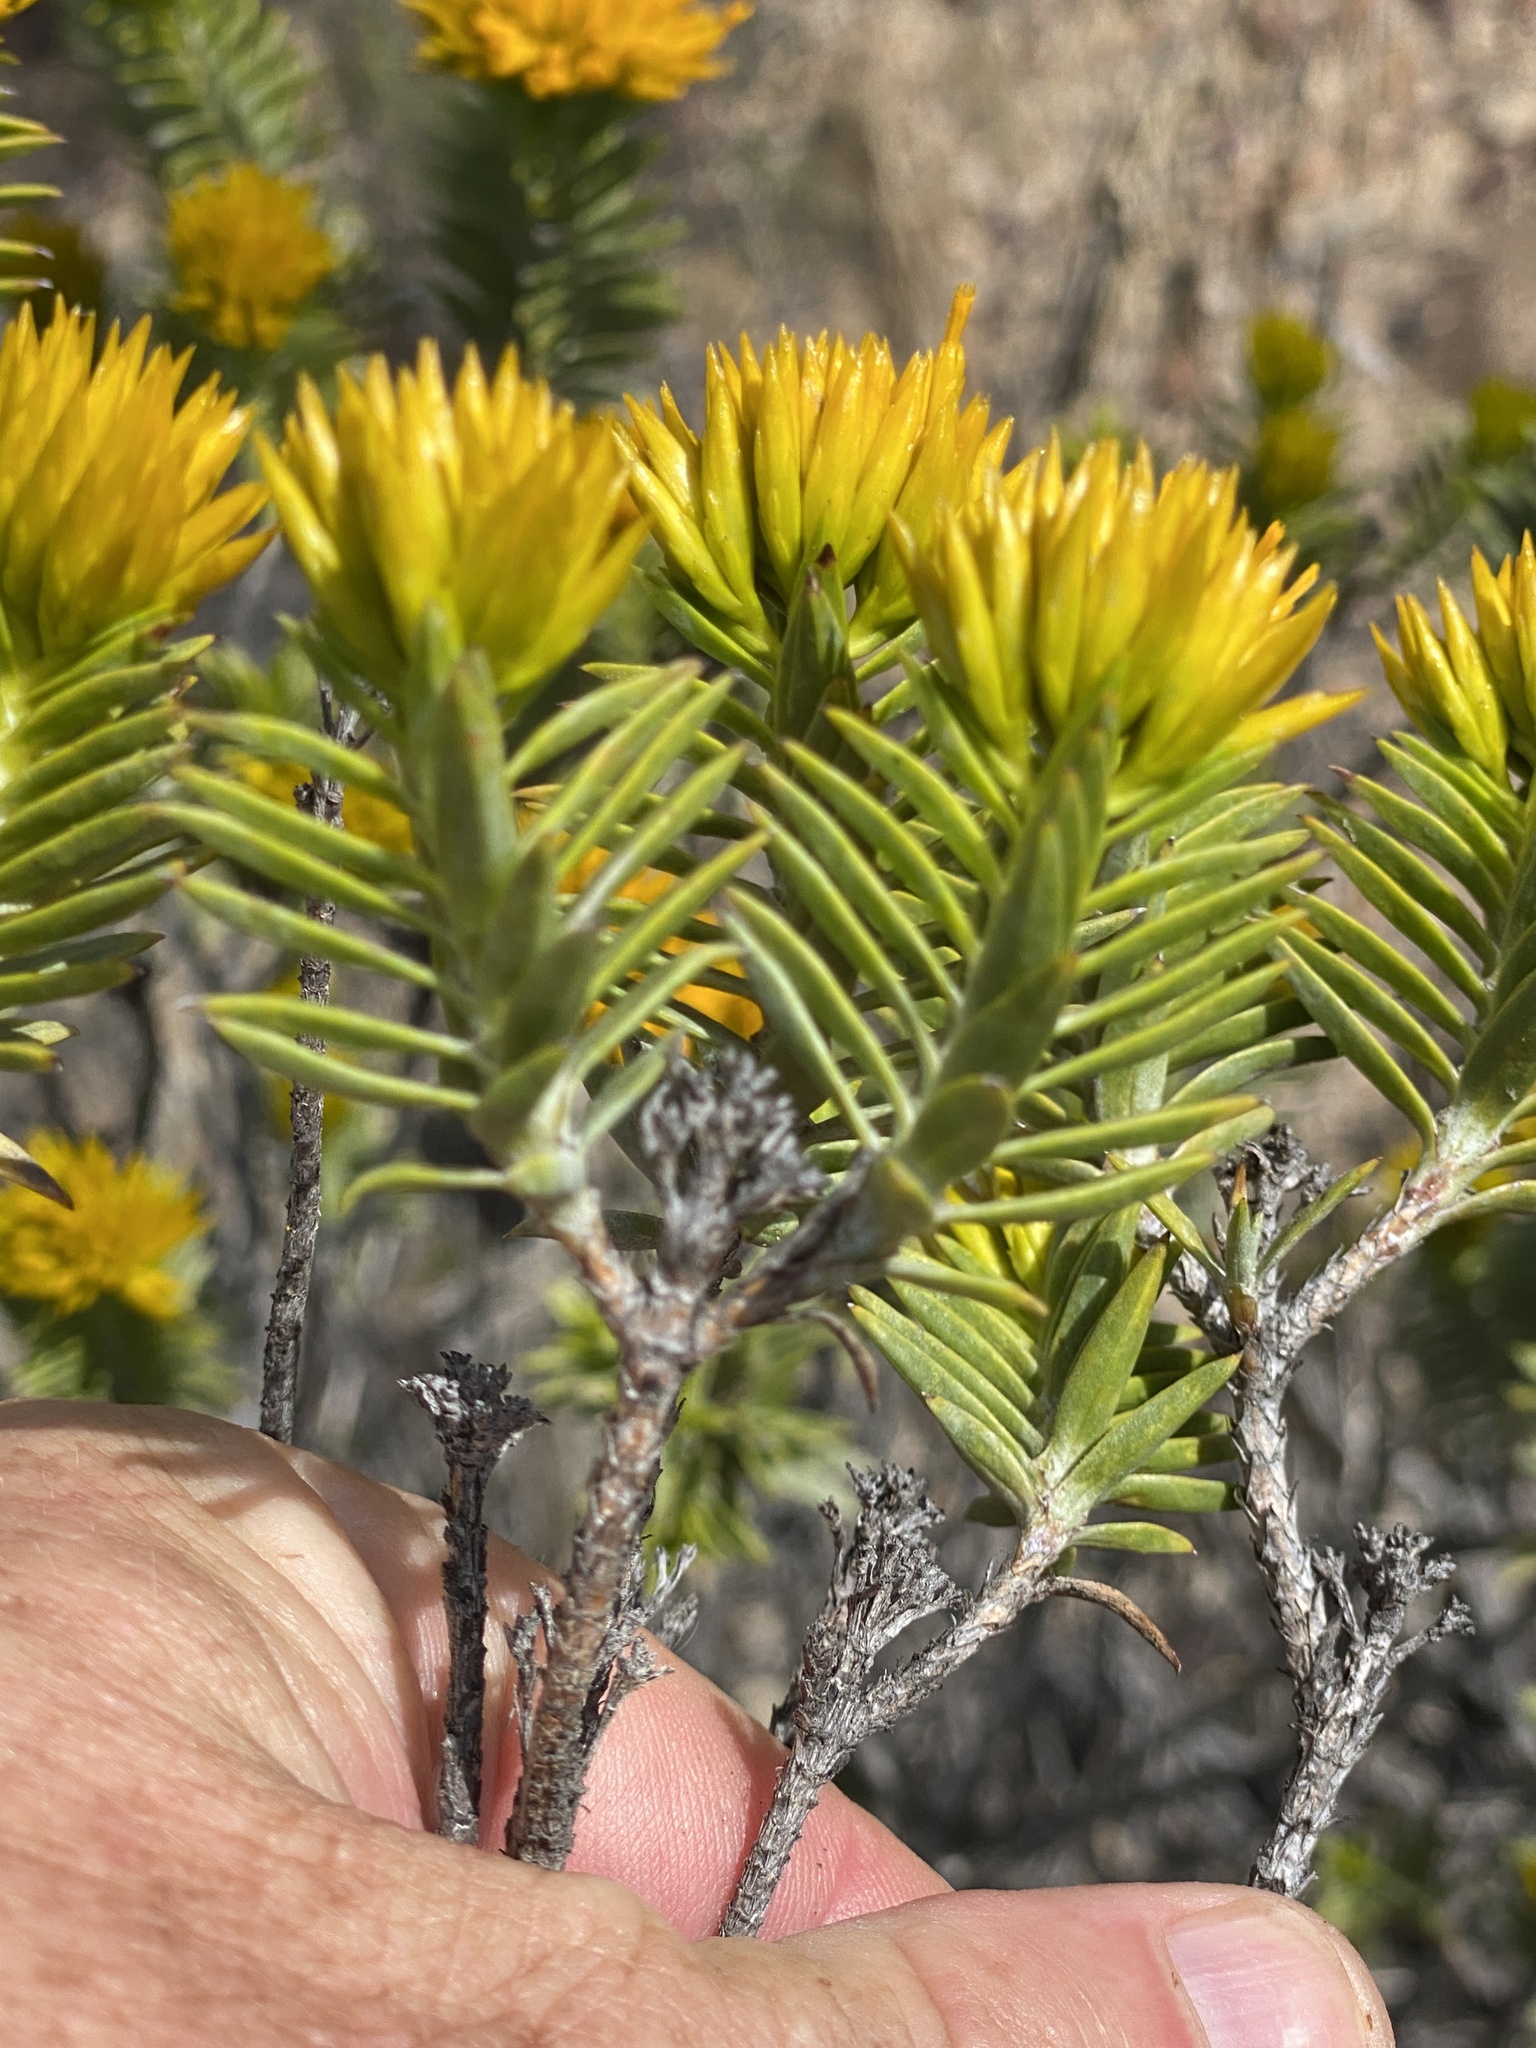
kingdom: Plantae
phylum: Tracheophyta
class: Magnoliopsida
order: Asterales
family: Asteraceae
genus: Pteronia
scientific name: Pteronia fasciculata
